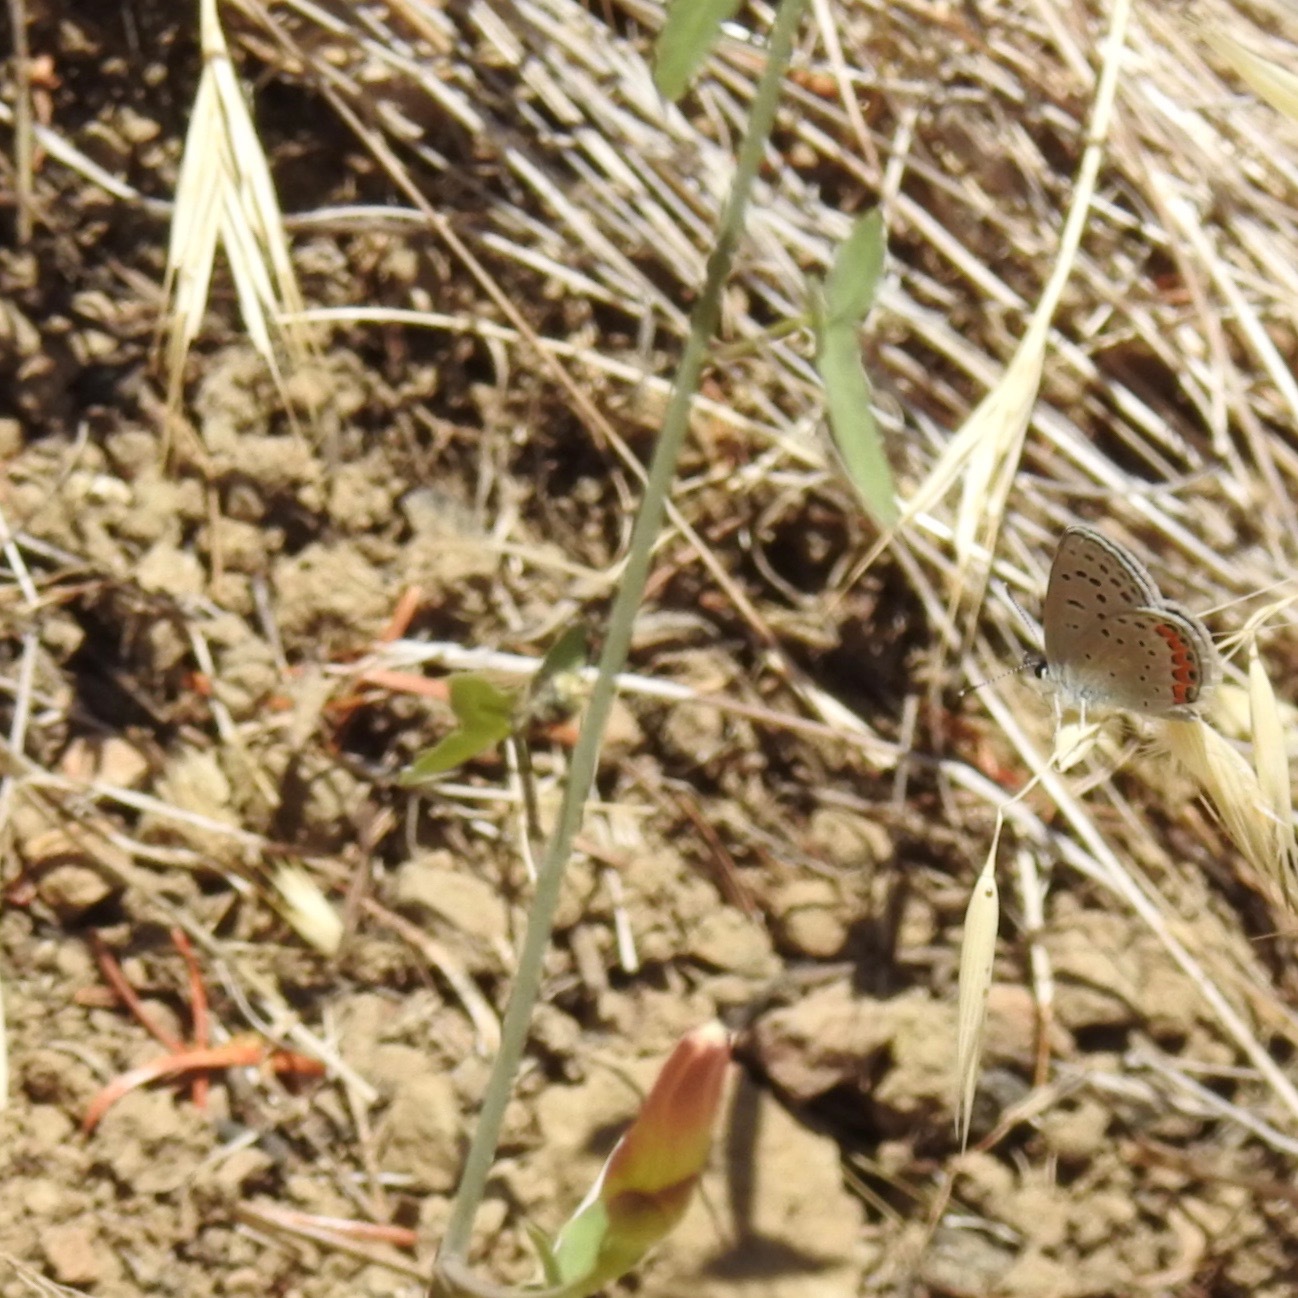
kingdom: Animalia
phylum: Arthropoda
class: Insecta
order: Lepidoptera
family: Lycaenidae
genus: Icaricia
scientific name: Icaricia acmon
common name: Acmon blue
